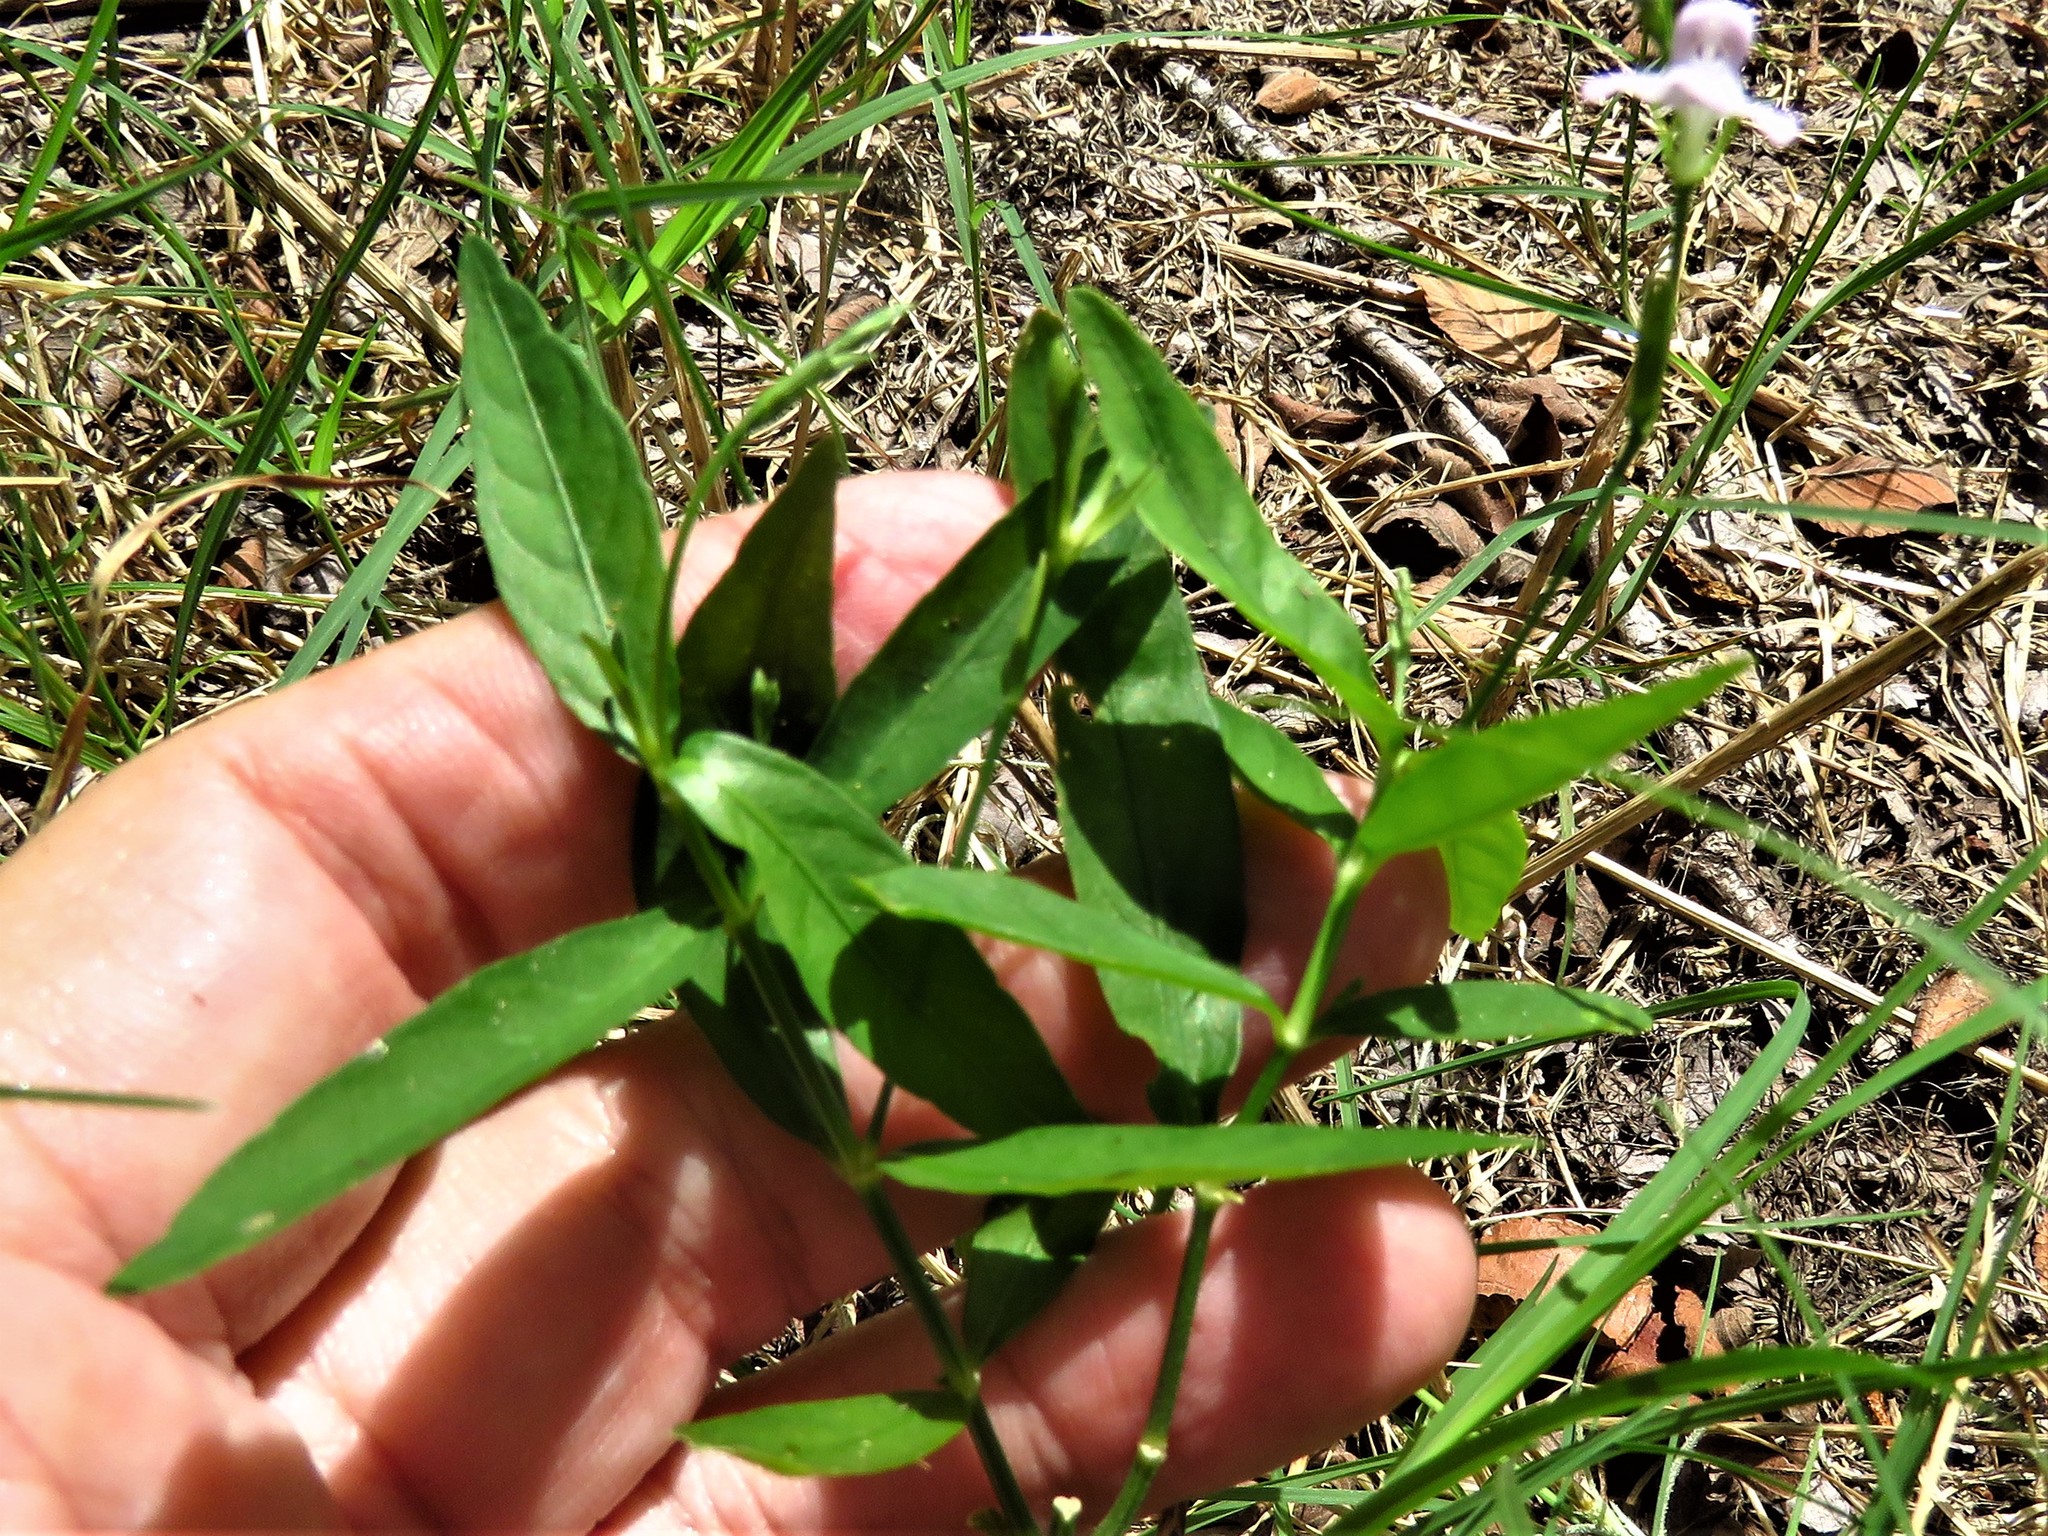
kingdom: Plantae
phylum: Tracheophyta
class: Magnoliopsida
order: Lamiales
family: Acanthaceae
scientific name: Acanthaceae
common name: Acanthaceae
